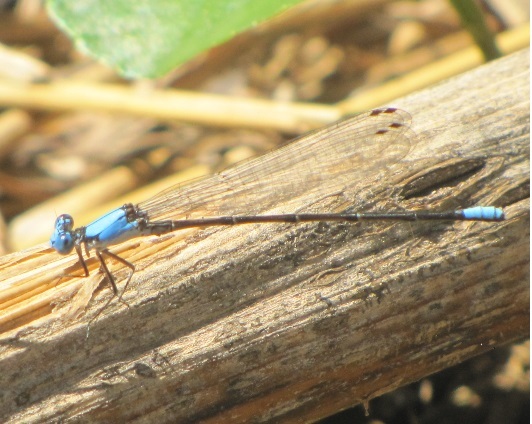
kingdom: Animalia
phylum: Arthropoda
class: Insecta
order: Odonata
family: Coenagrionidae
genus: Argia
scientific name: Argia apicalis
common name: Blue-fronted dancer
